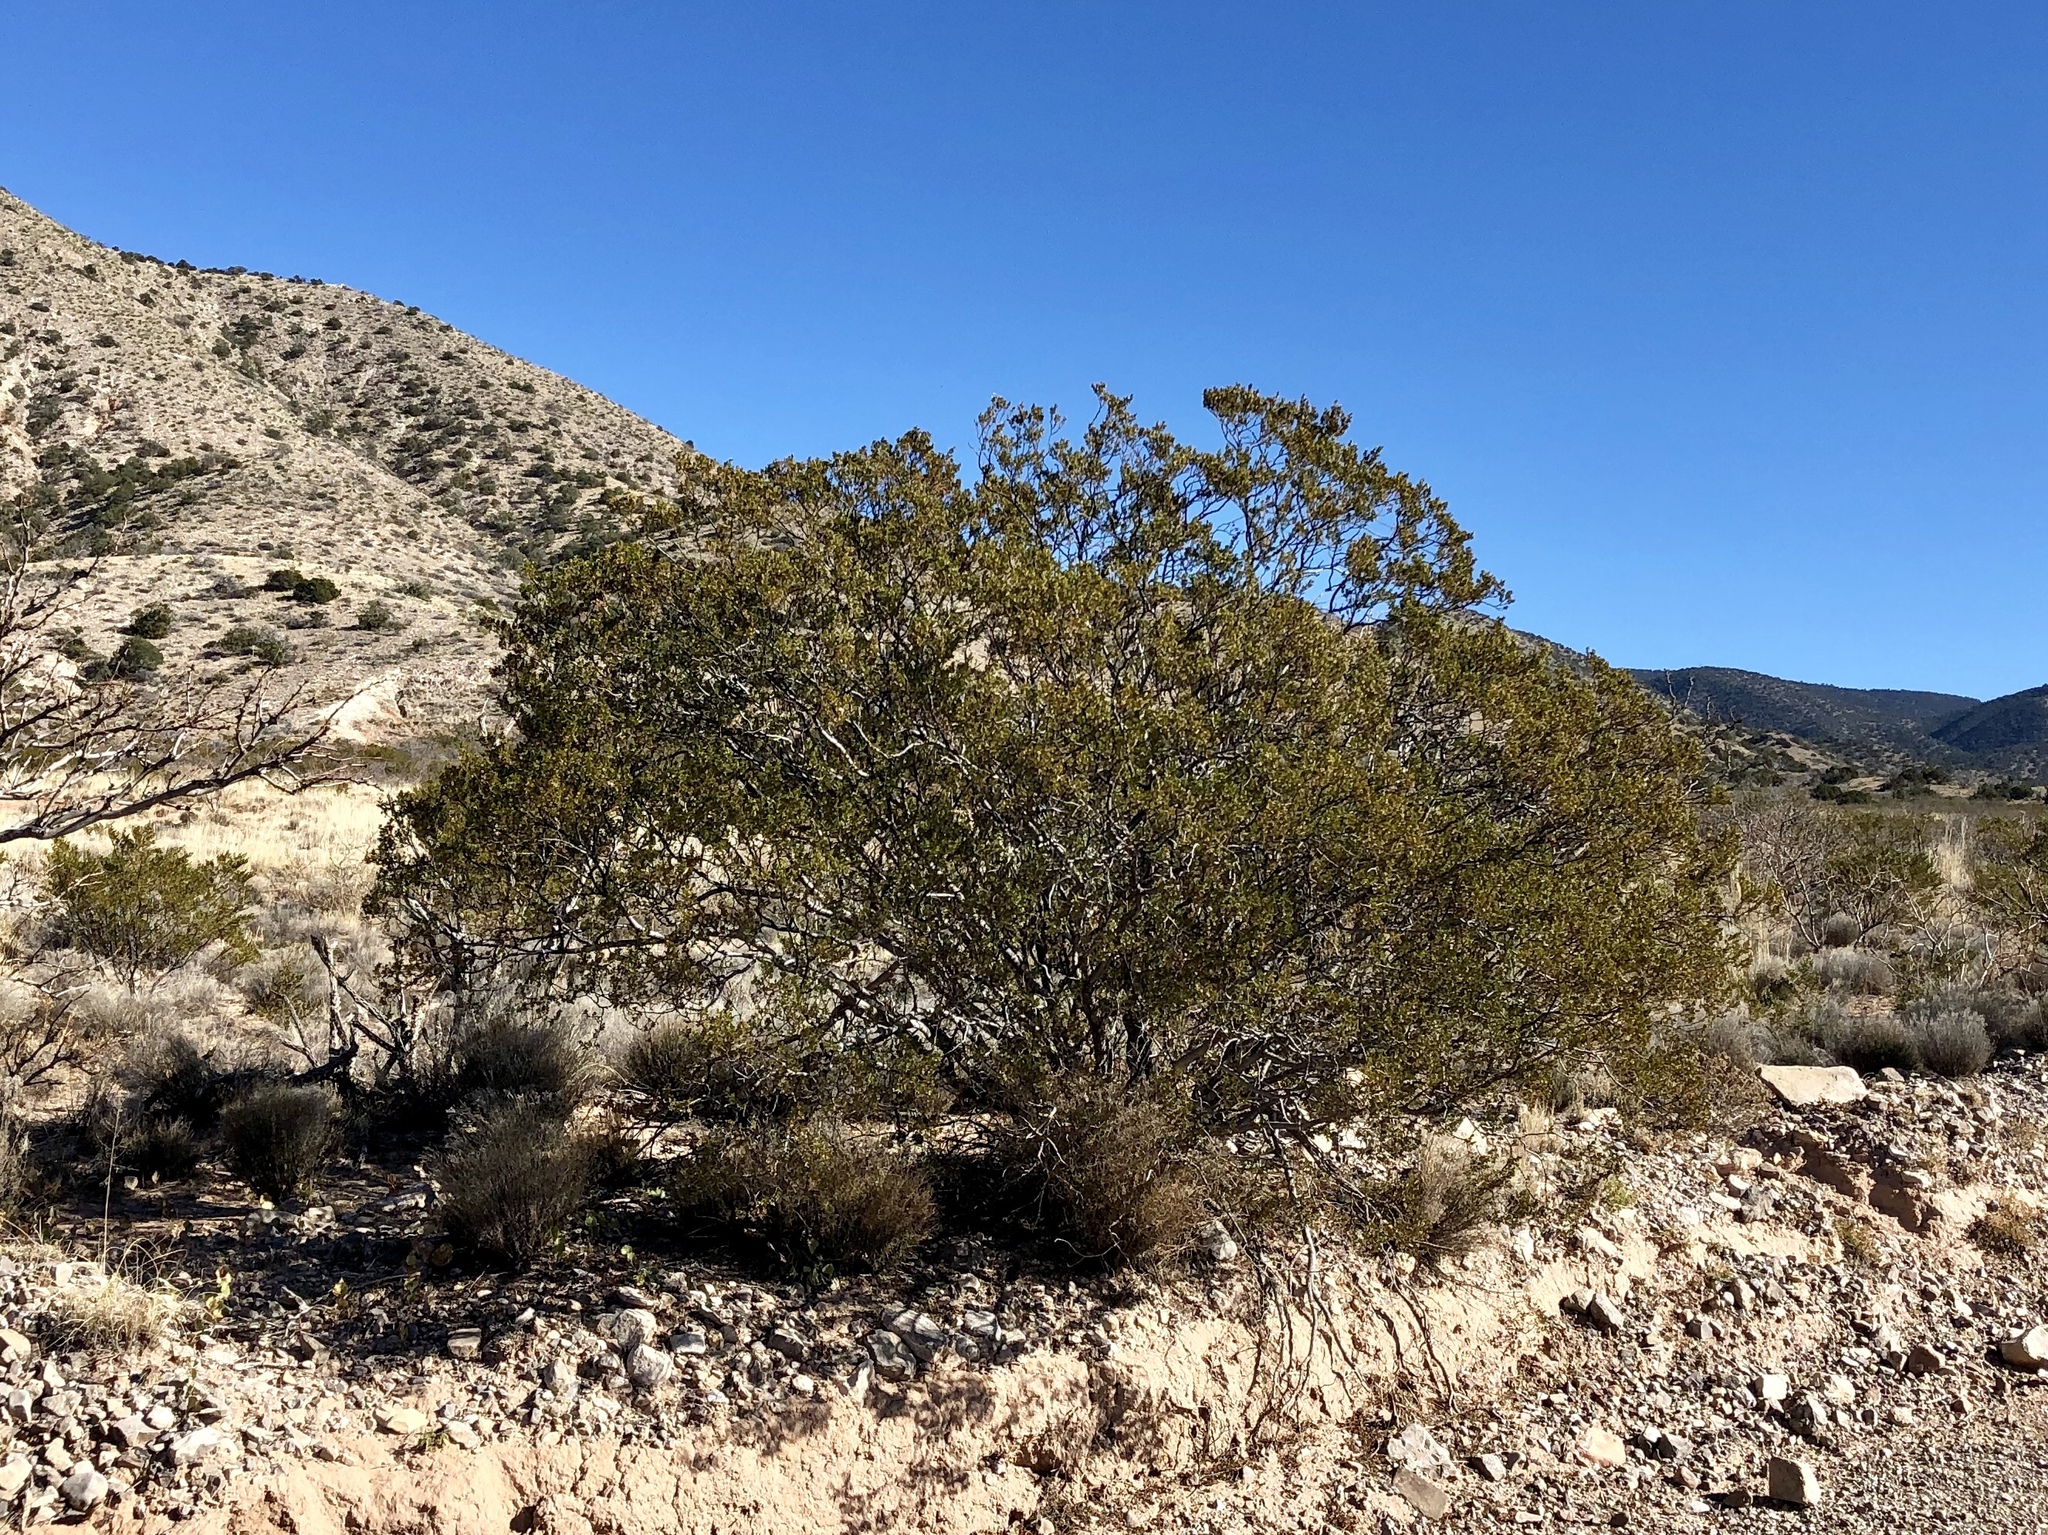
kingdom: Plantae
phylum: Tracheophyta
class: Magnoliopsida
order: Zygophyllales
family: Zygophyllaceae
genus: Larrea
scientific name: Larrea tridentata
